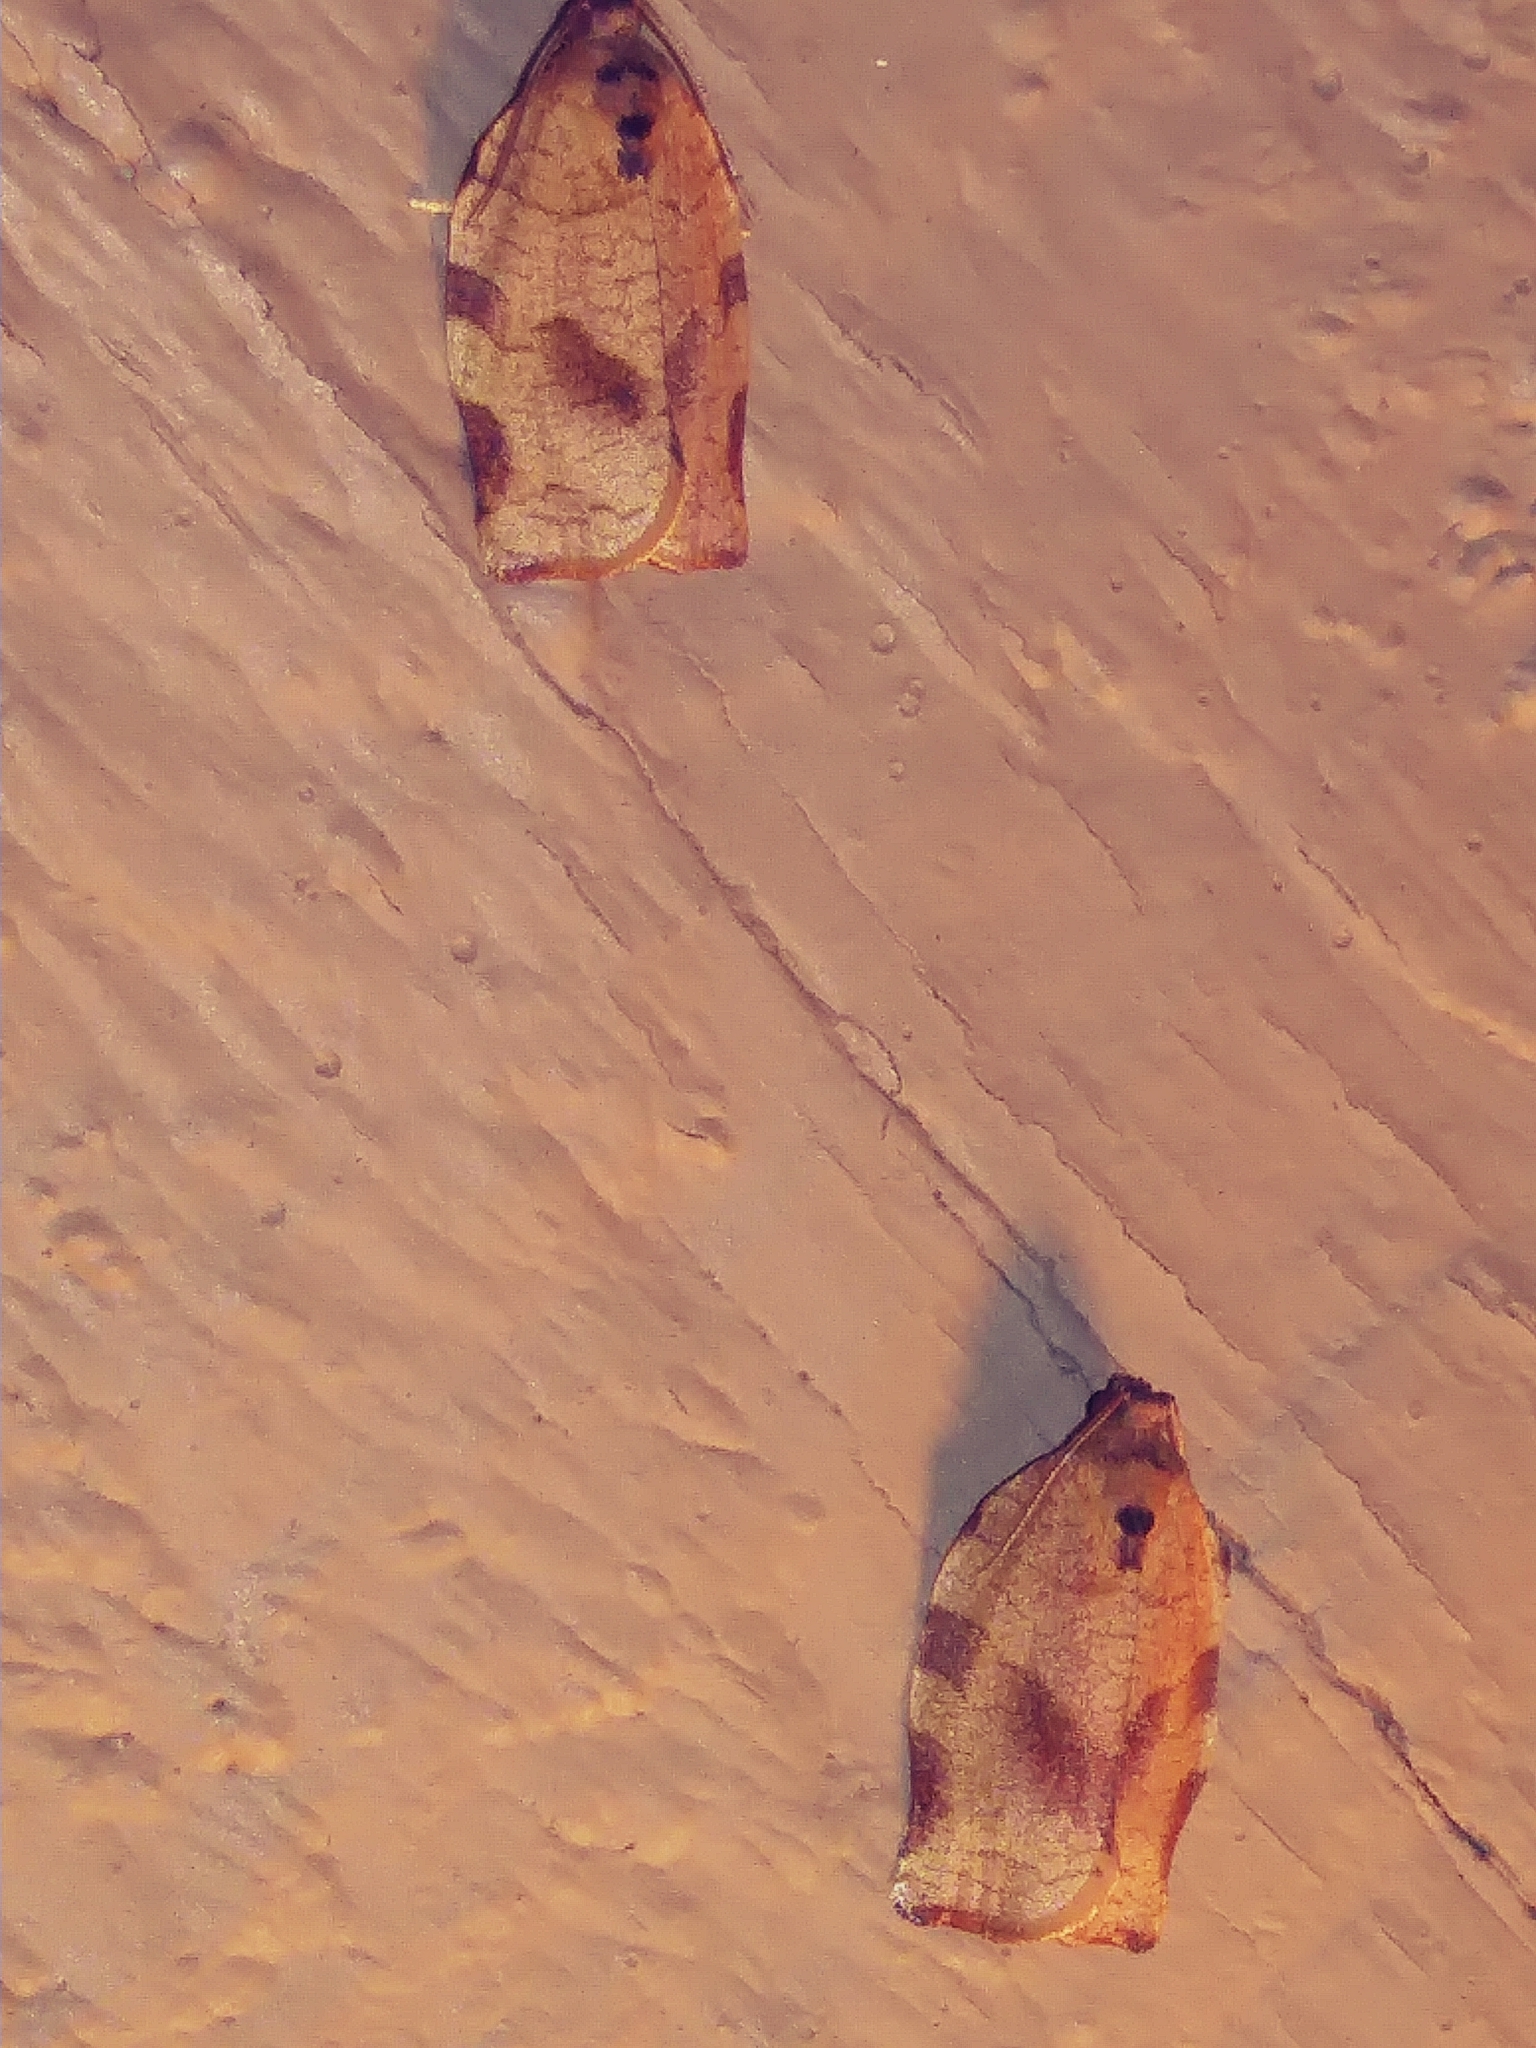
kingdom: Animalia
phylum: Arthropoda
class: Insecta
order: Lepidoptera
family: Tortricidae
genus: Choristoneura
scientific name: Choristoneura rosaceana
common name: Oblique-banded leafroller moth
